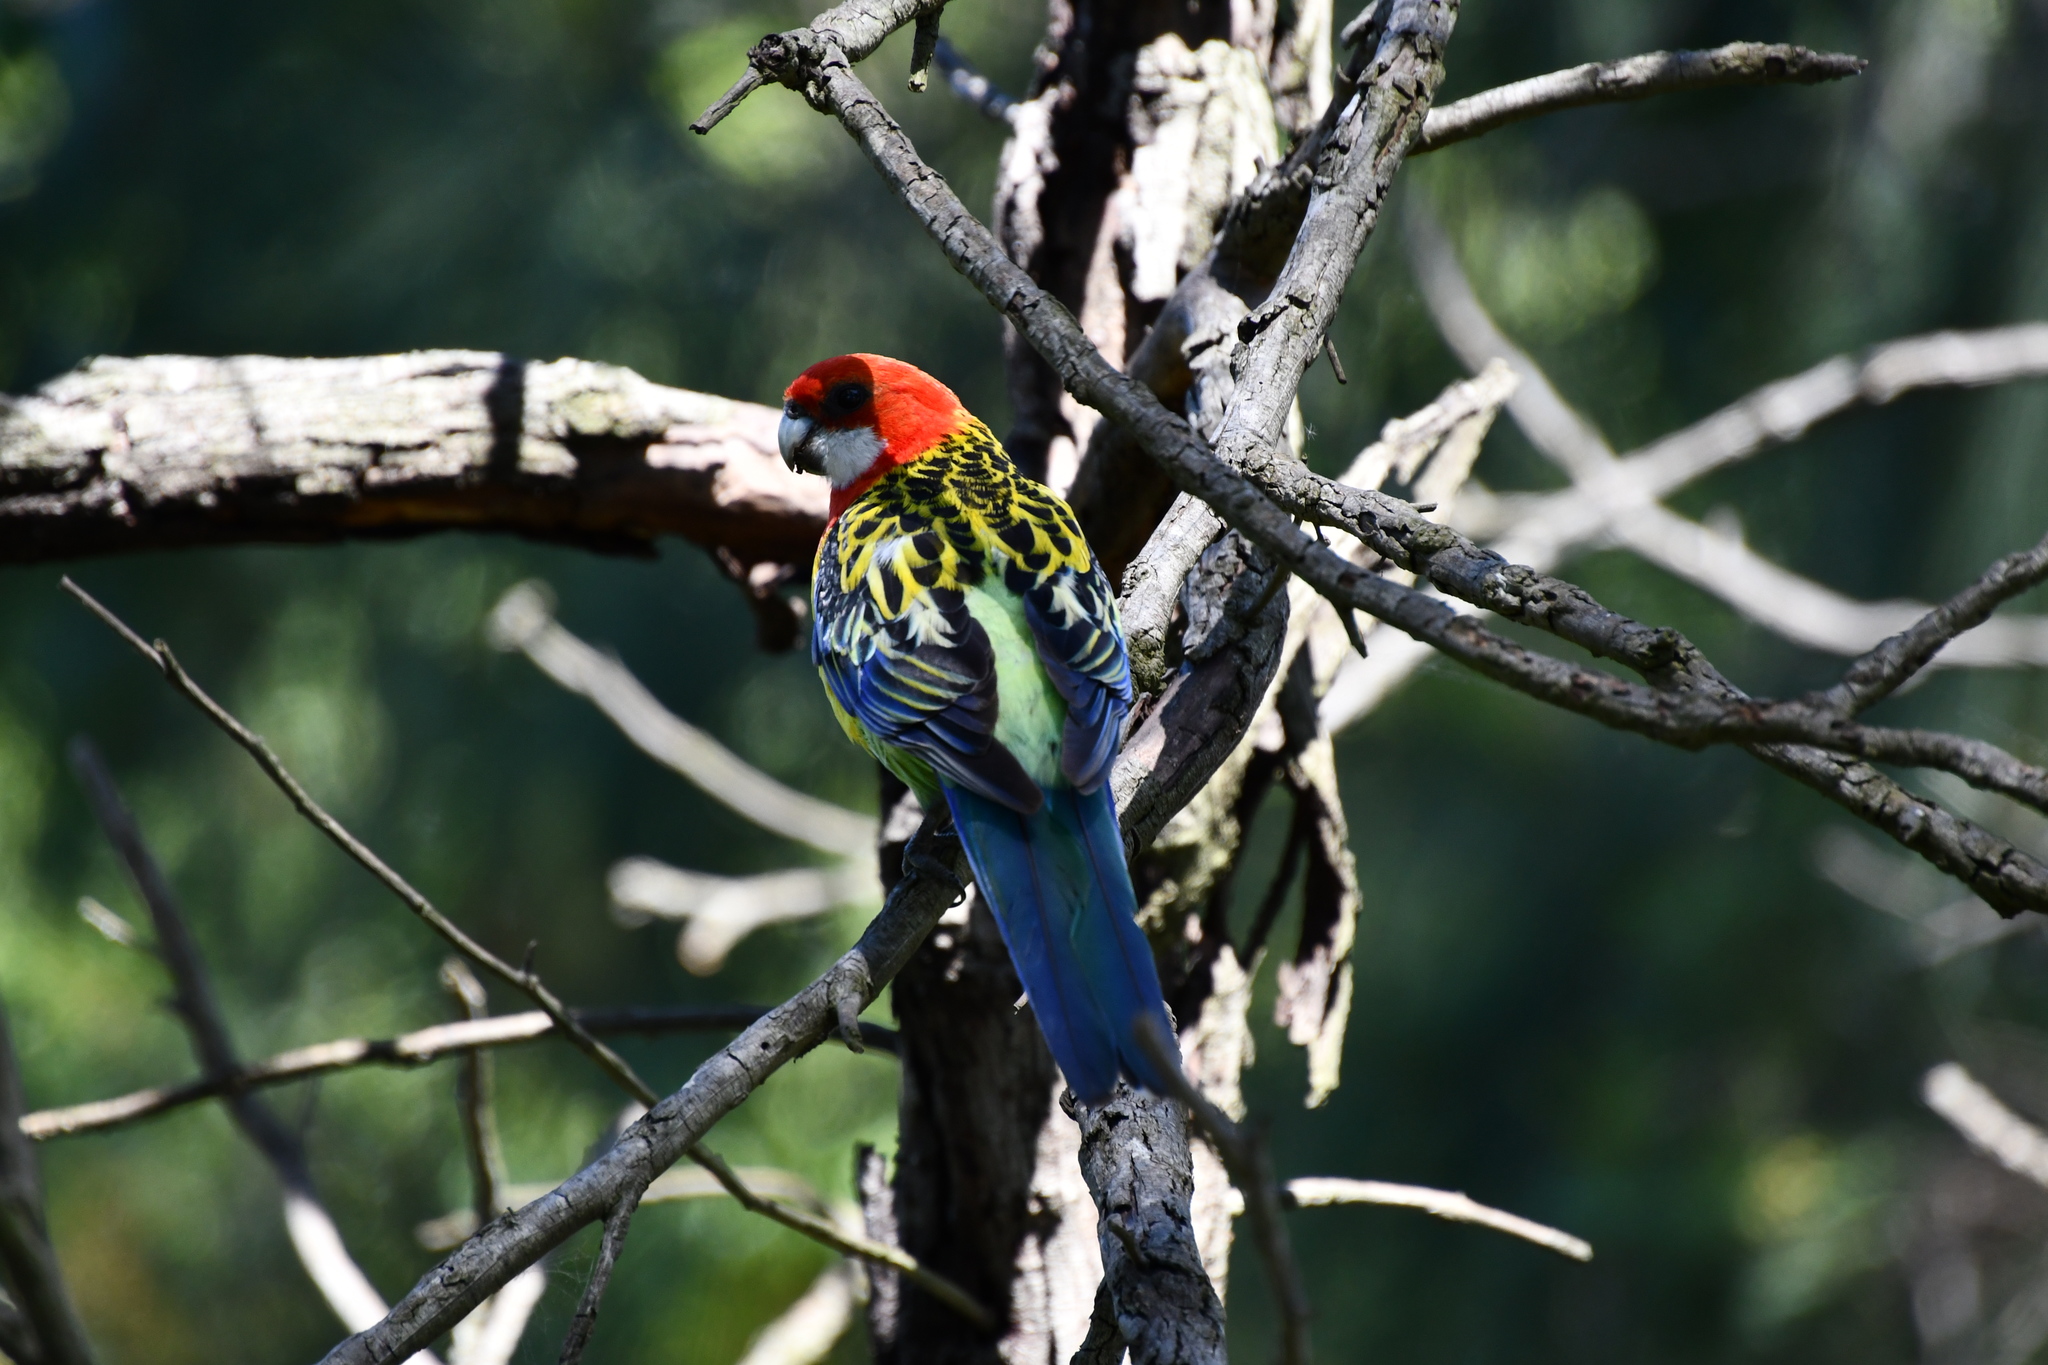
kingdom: Animalia
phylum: Chordata
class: Aves
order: Psittaciformes
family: Psittacidae
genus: Platycercus
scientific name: Platycercus eximius
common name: Eastern rosella
